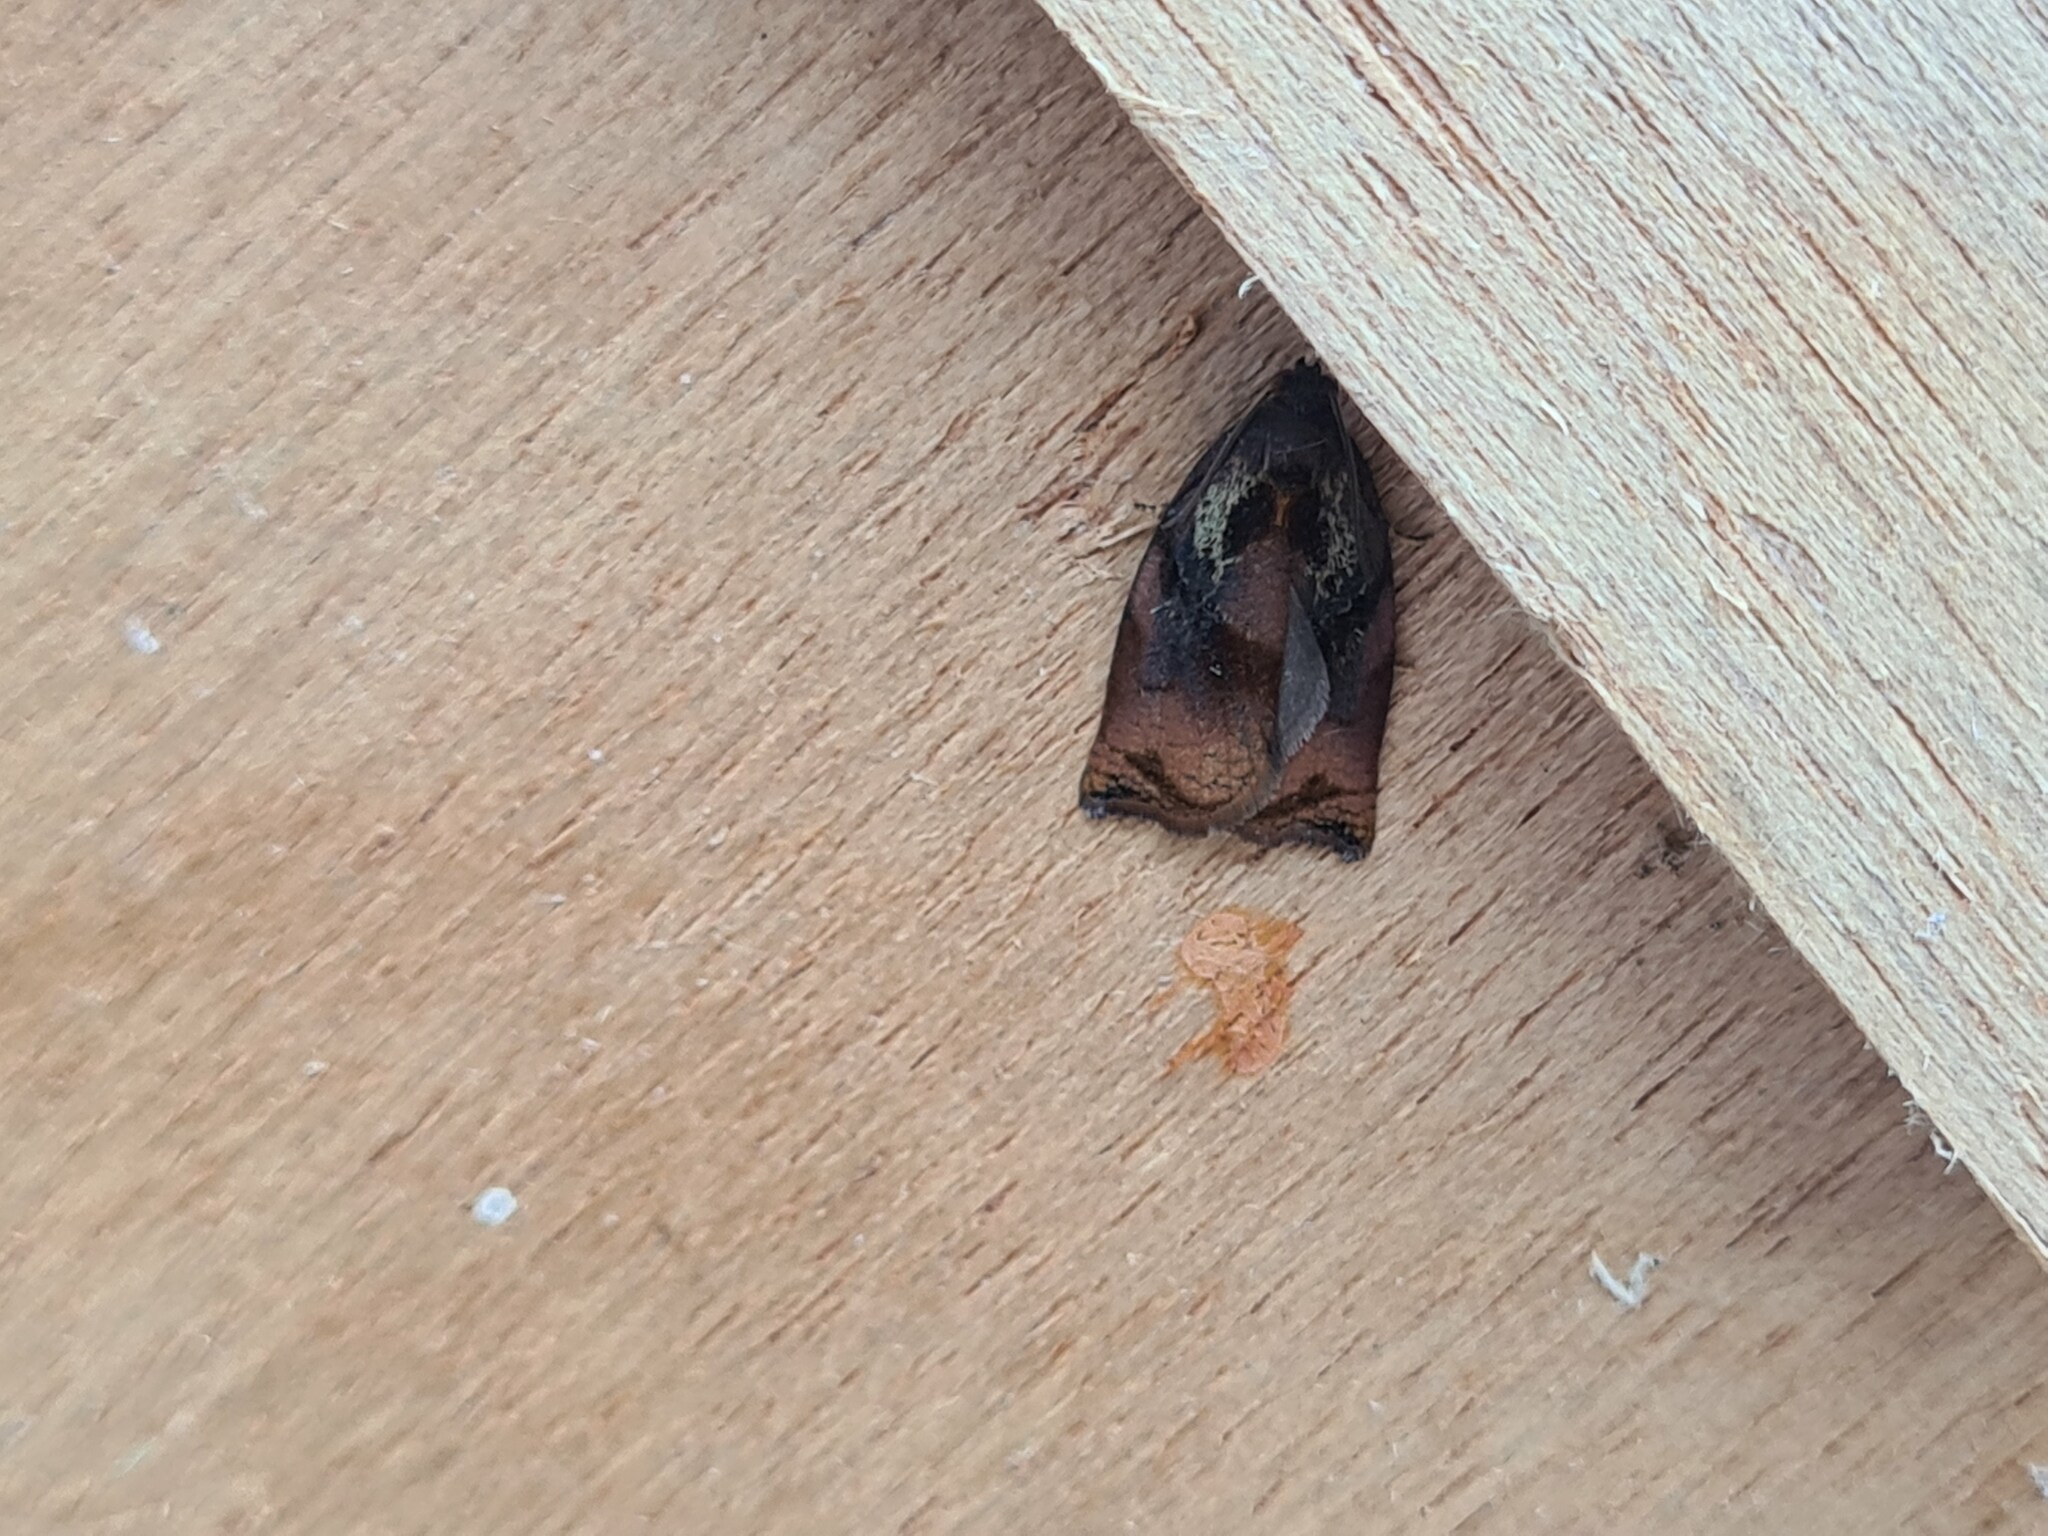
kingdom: Animalia
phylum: Arthropoda
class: Insecta
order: Lepidoptera
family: Tortricidae
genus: Archips
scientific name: Archips podana
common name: Large fruit-tree tortrix
